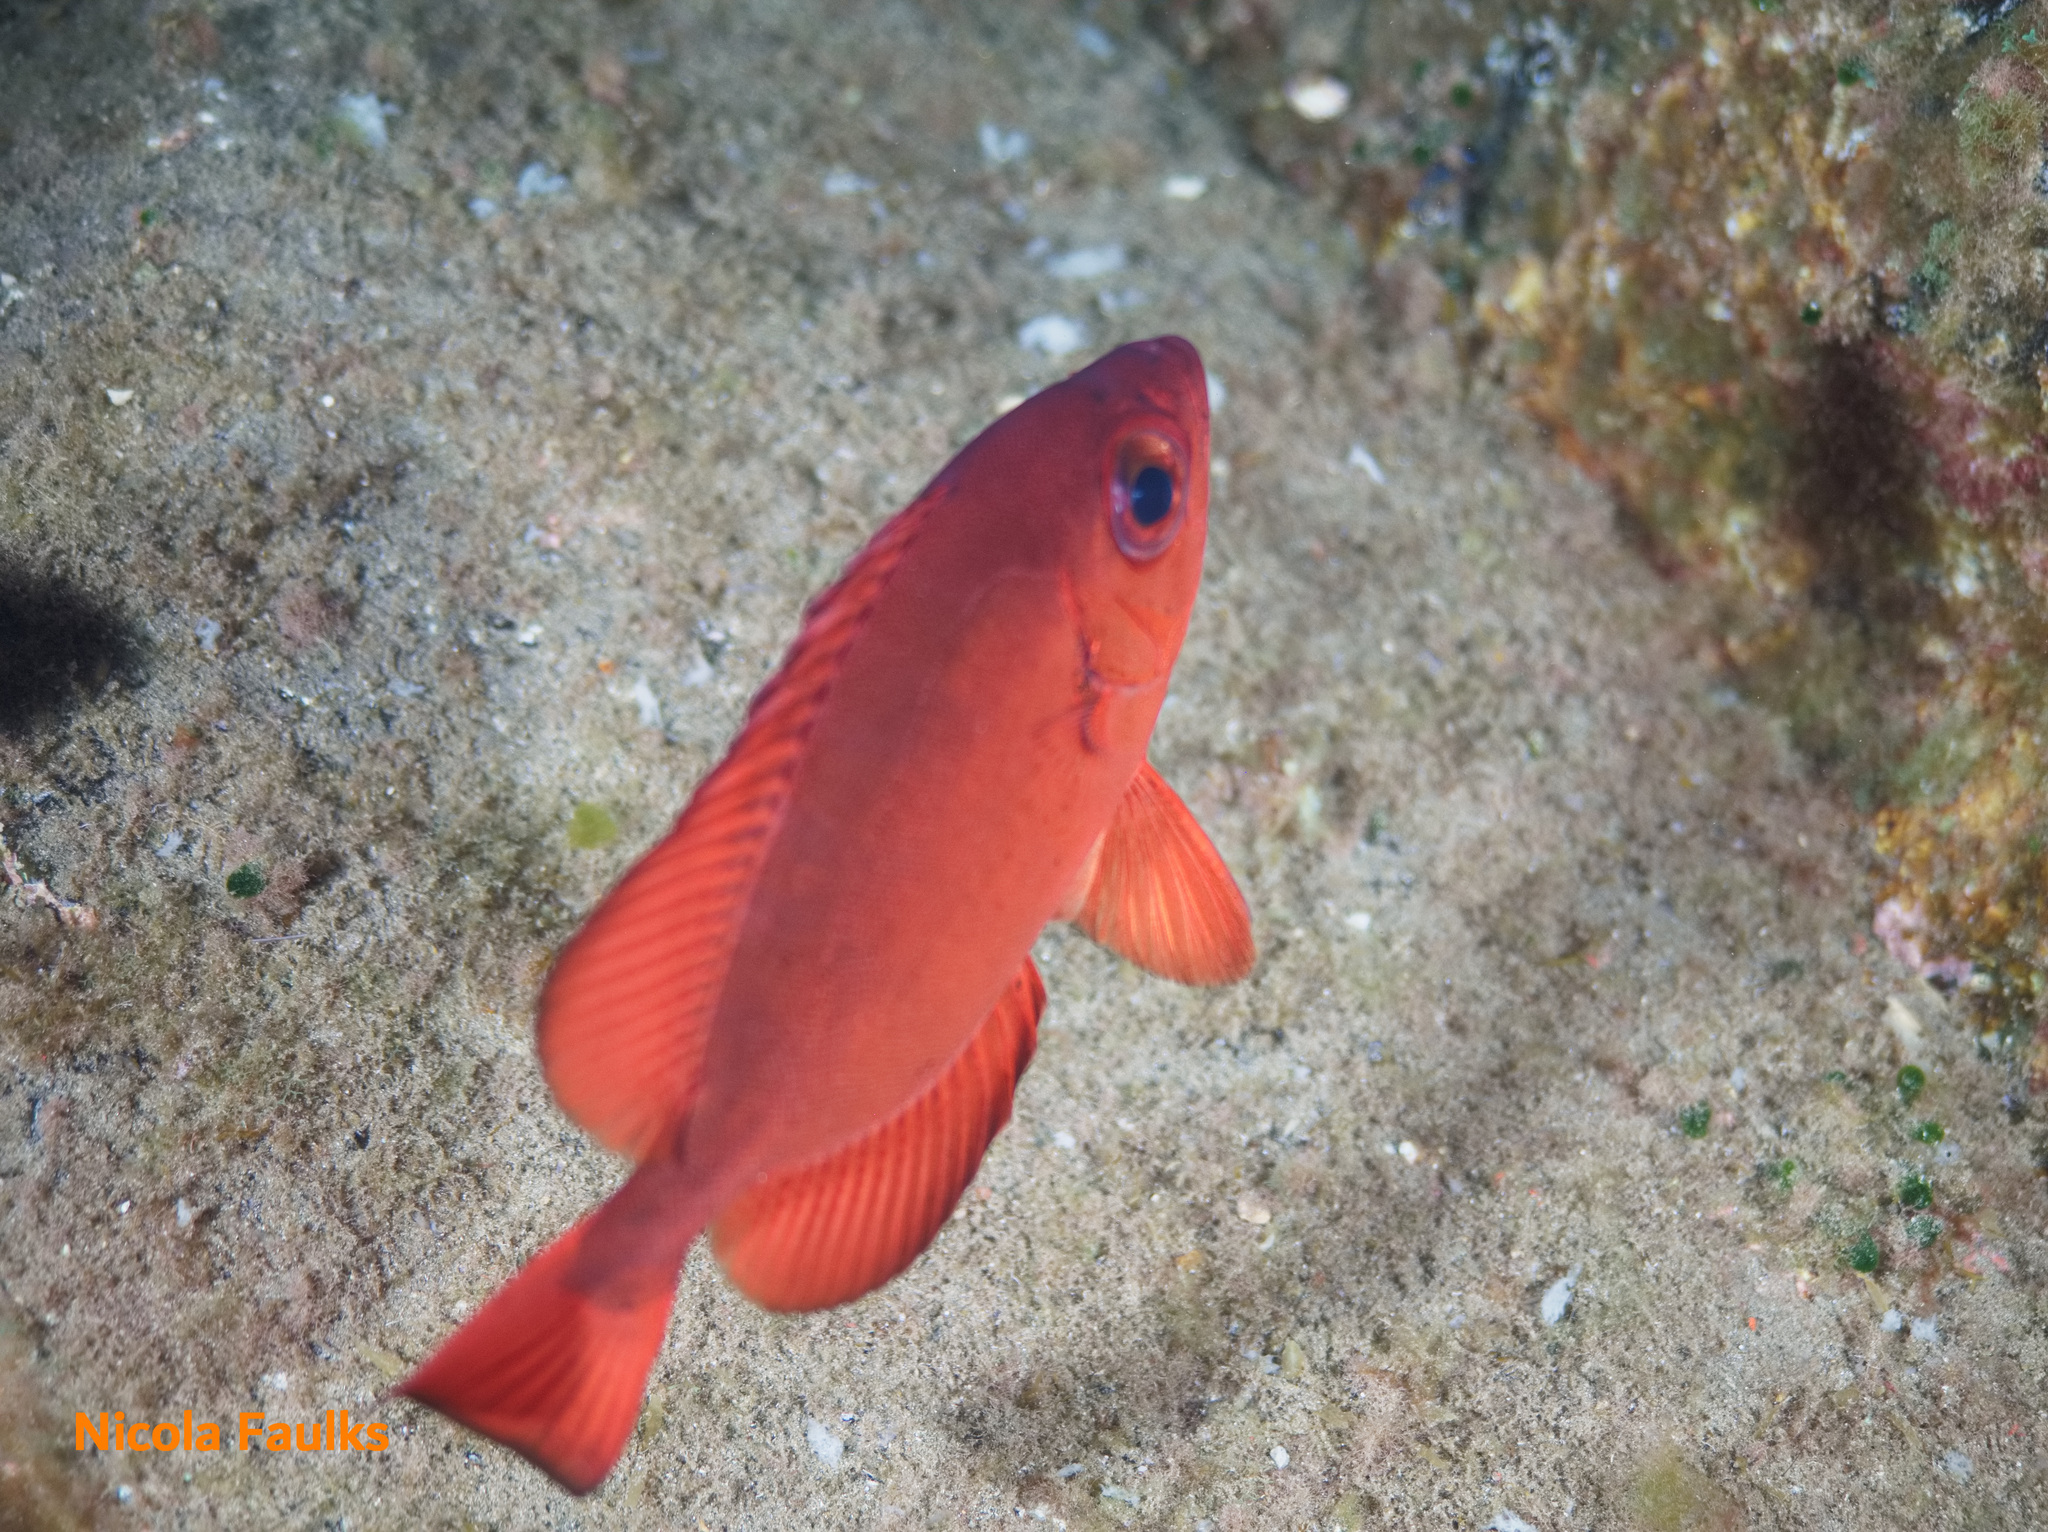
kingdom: Animalia
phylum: Chordata
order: Perciformes
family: Priacanthidae
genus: Heteropriacanthus
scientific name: Heteropriacanthus fulgens
